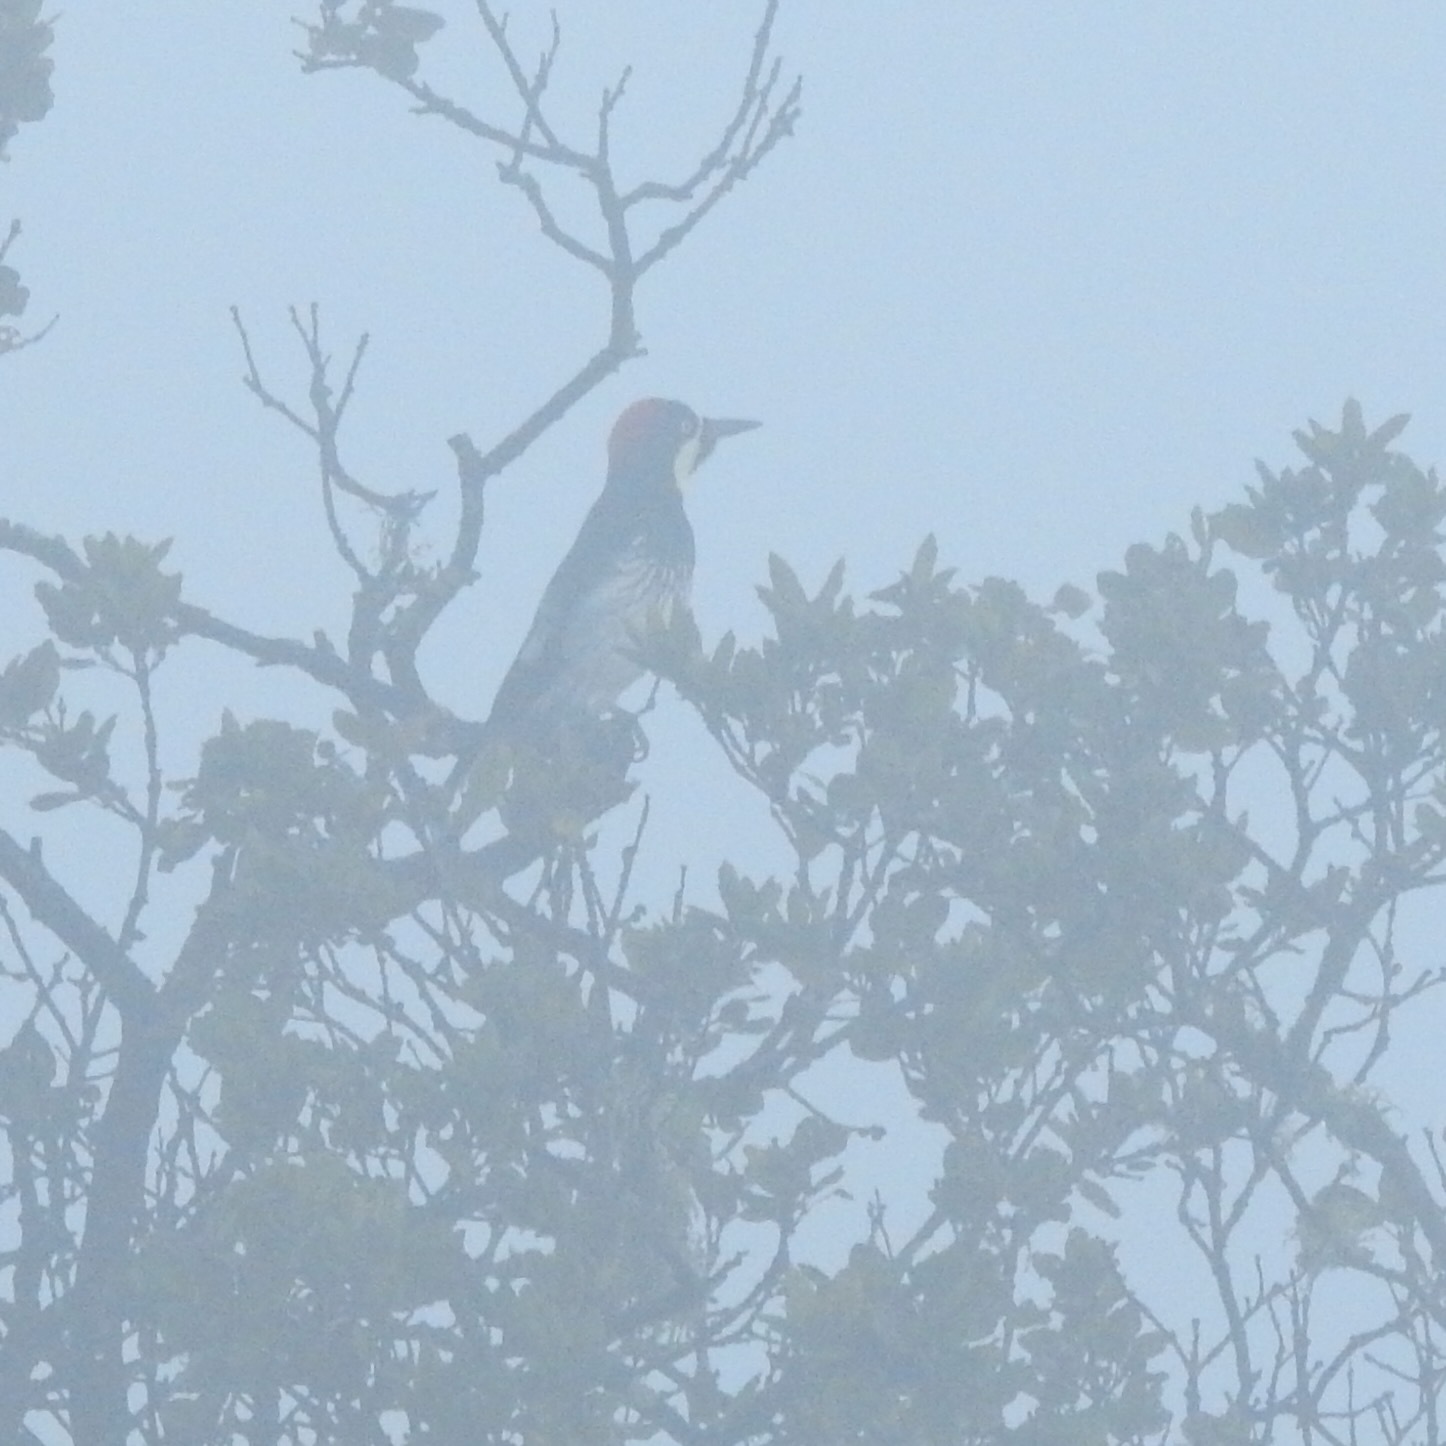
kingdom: Animalia
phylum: Chordata
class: Aves
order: Piciformes
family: Picidae
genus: Melanerpes
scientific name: Melanerpes formicivorus
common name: Acorn woodpecker
